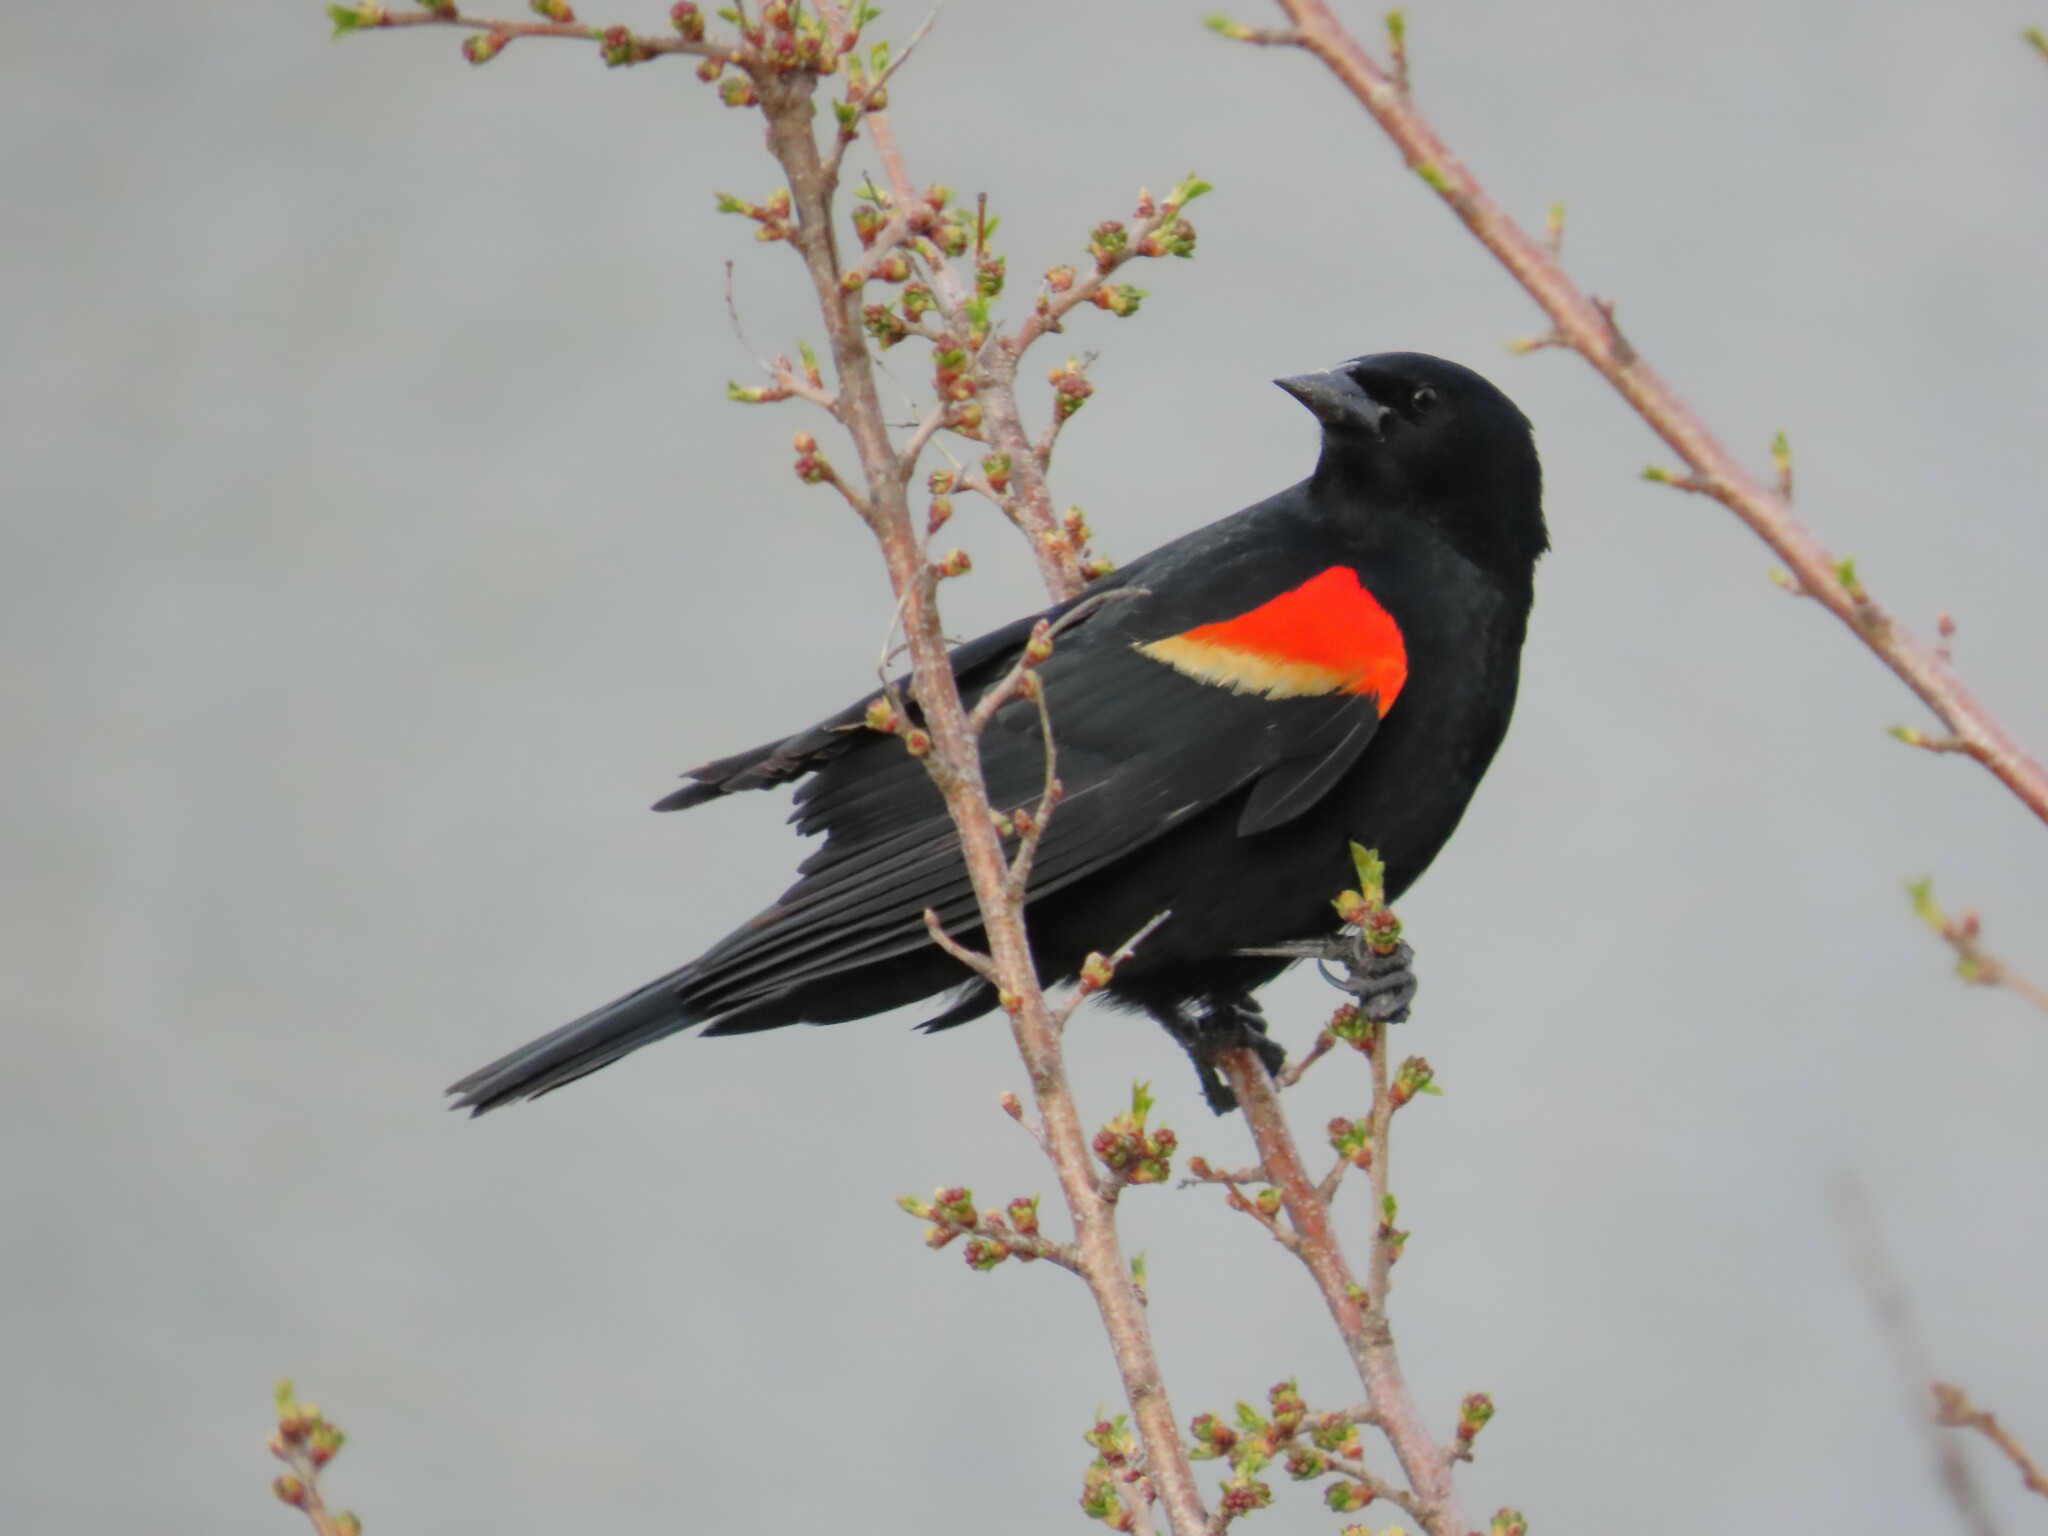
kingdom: Animalia
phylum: Chordata
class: Aves
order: Passeriformes
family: Icteridae
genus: Agelaius
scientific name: Agelaius phoeniceus
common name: Red-winged blackbird
